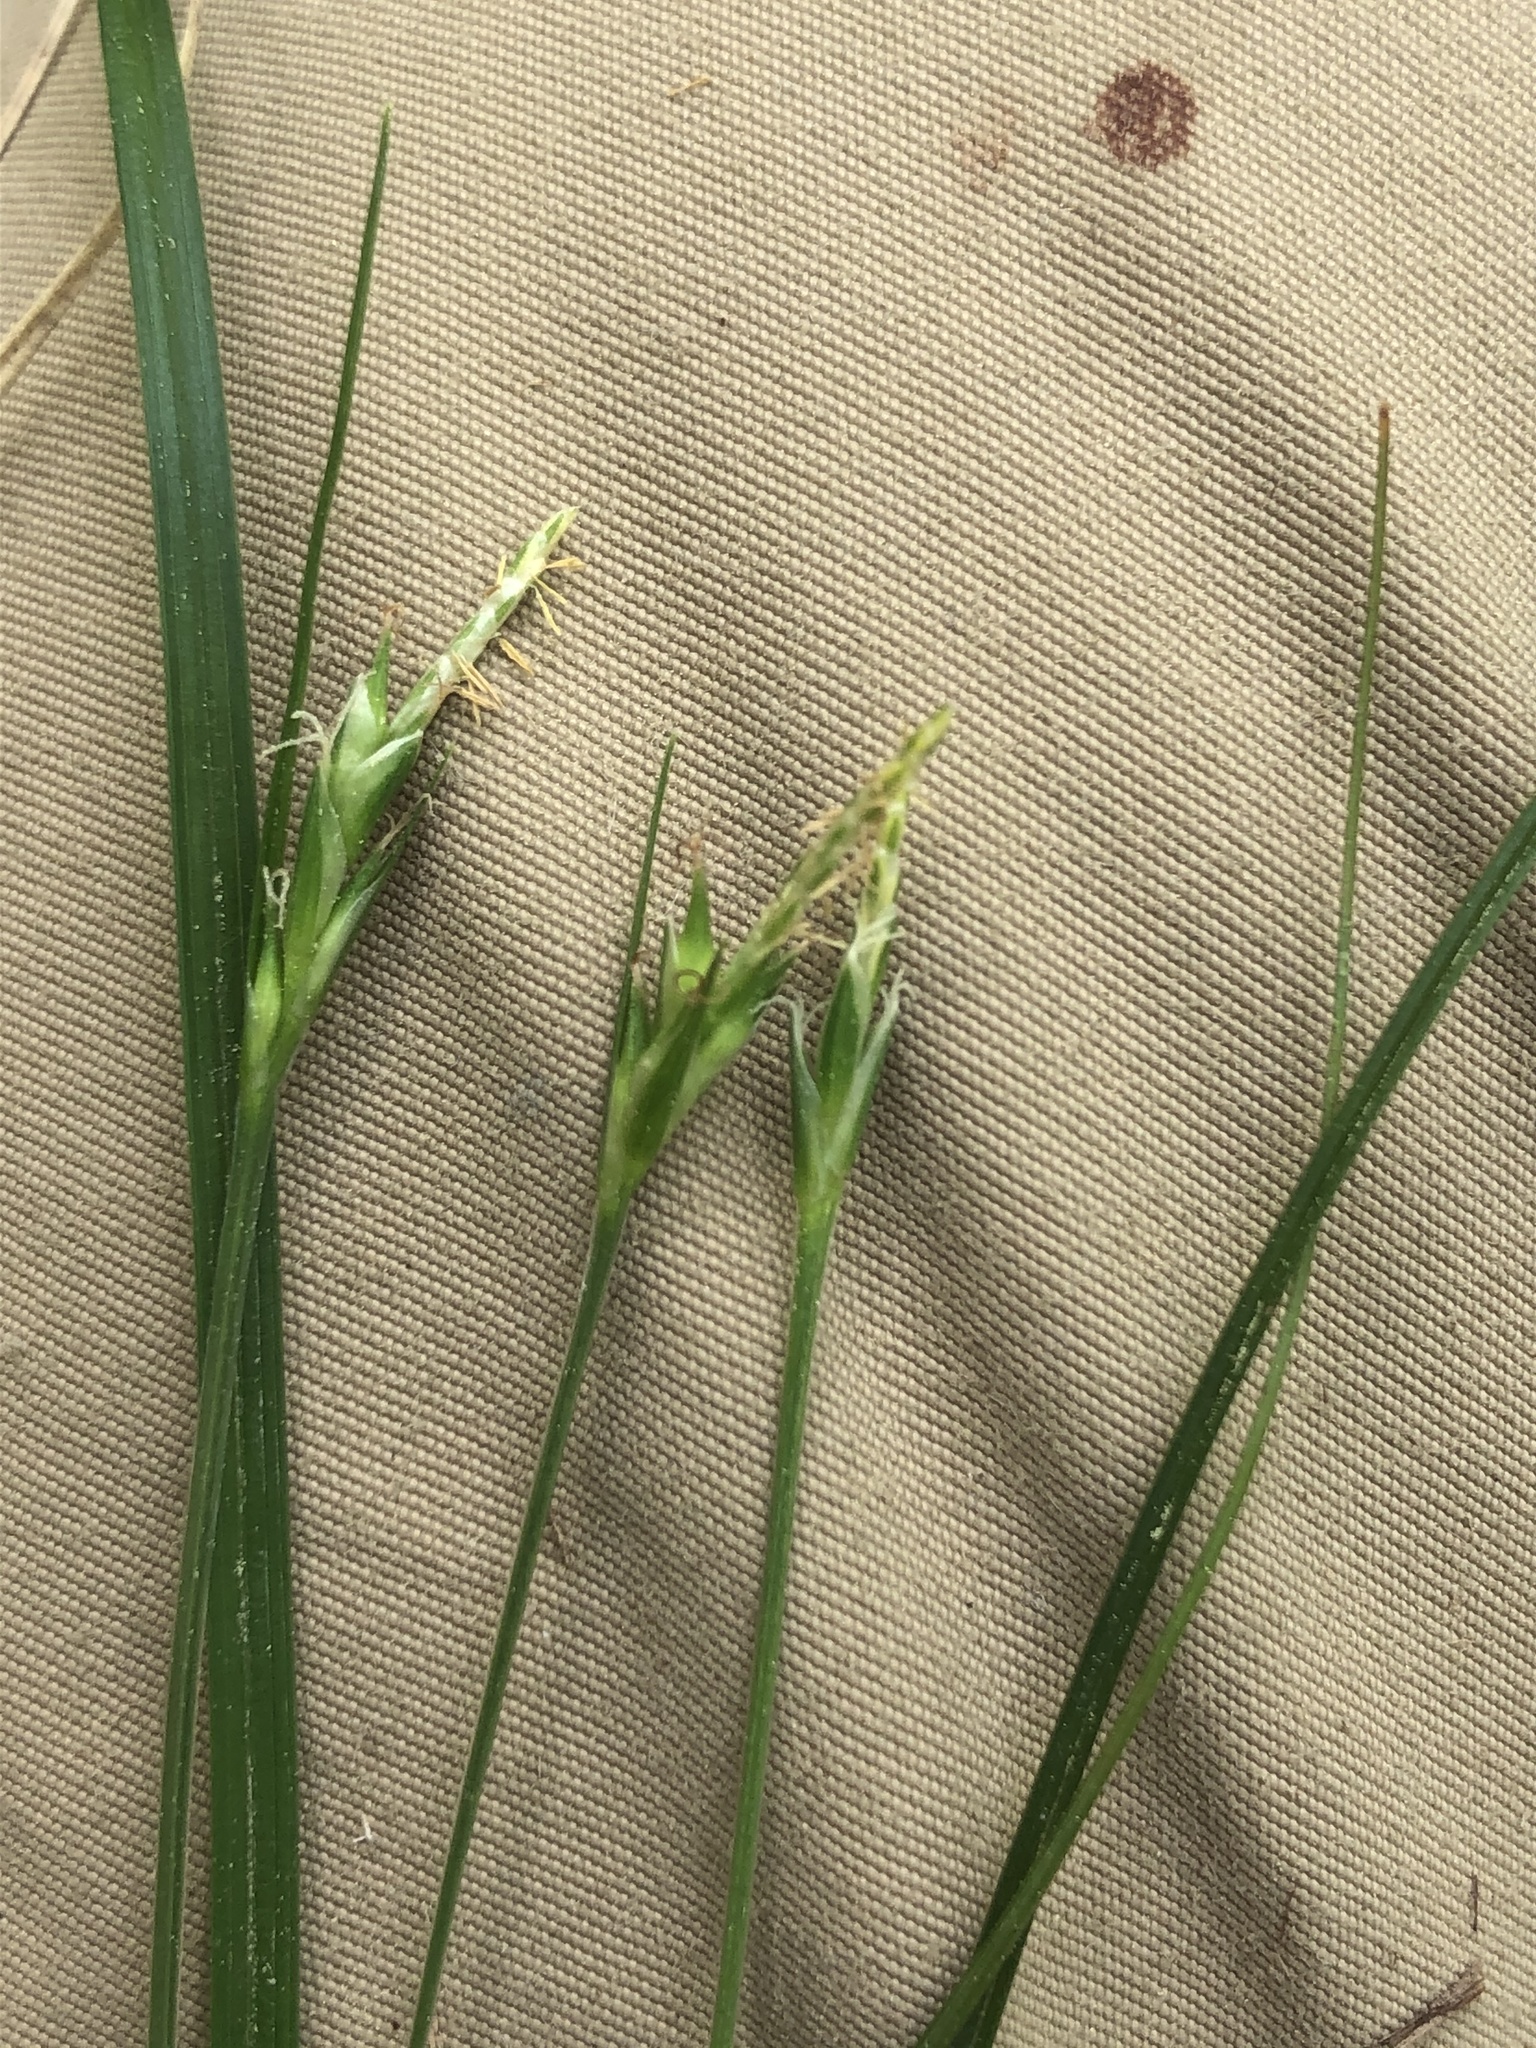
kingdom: Plantae
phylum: Tracheophyta
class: Liliopsida
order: Poales
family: Cyperaceae
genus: Carex
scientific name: Carex willdenowii
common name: Willdenow's sedge
